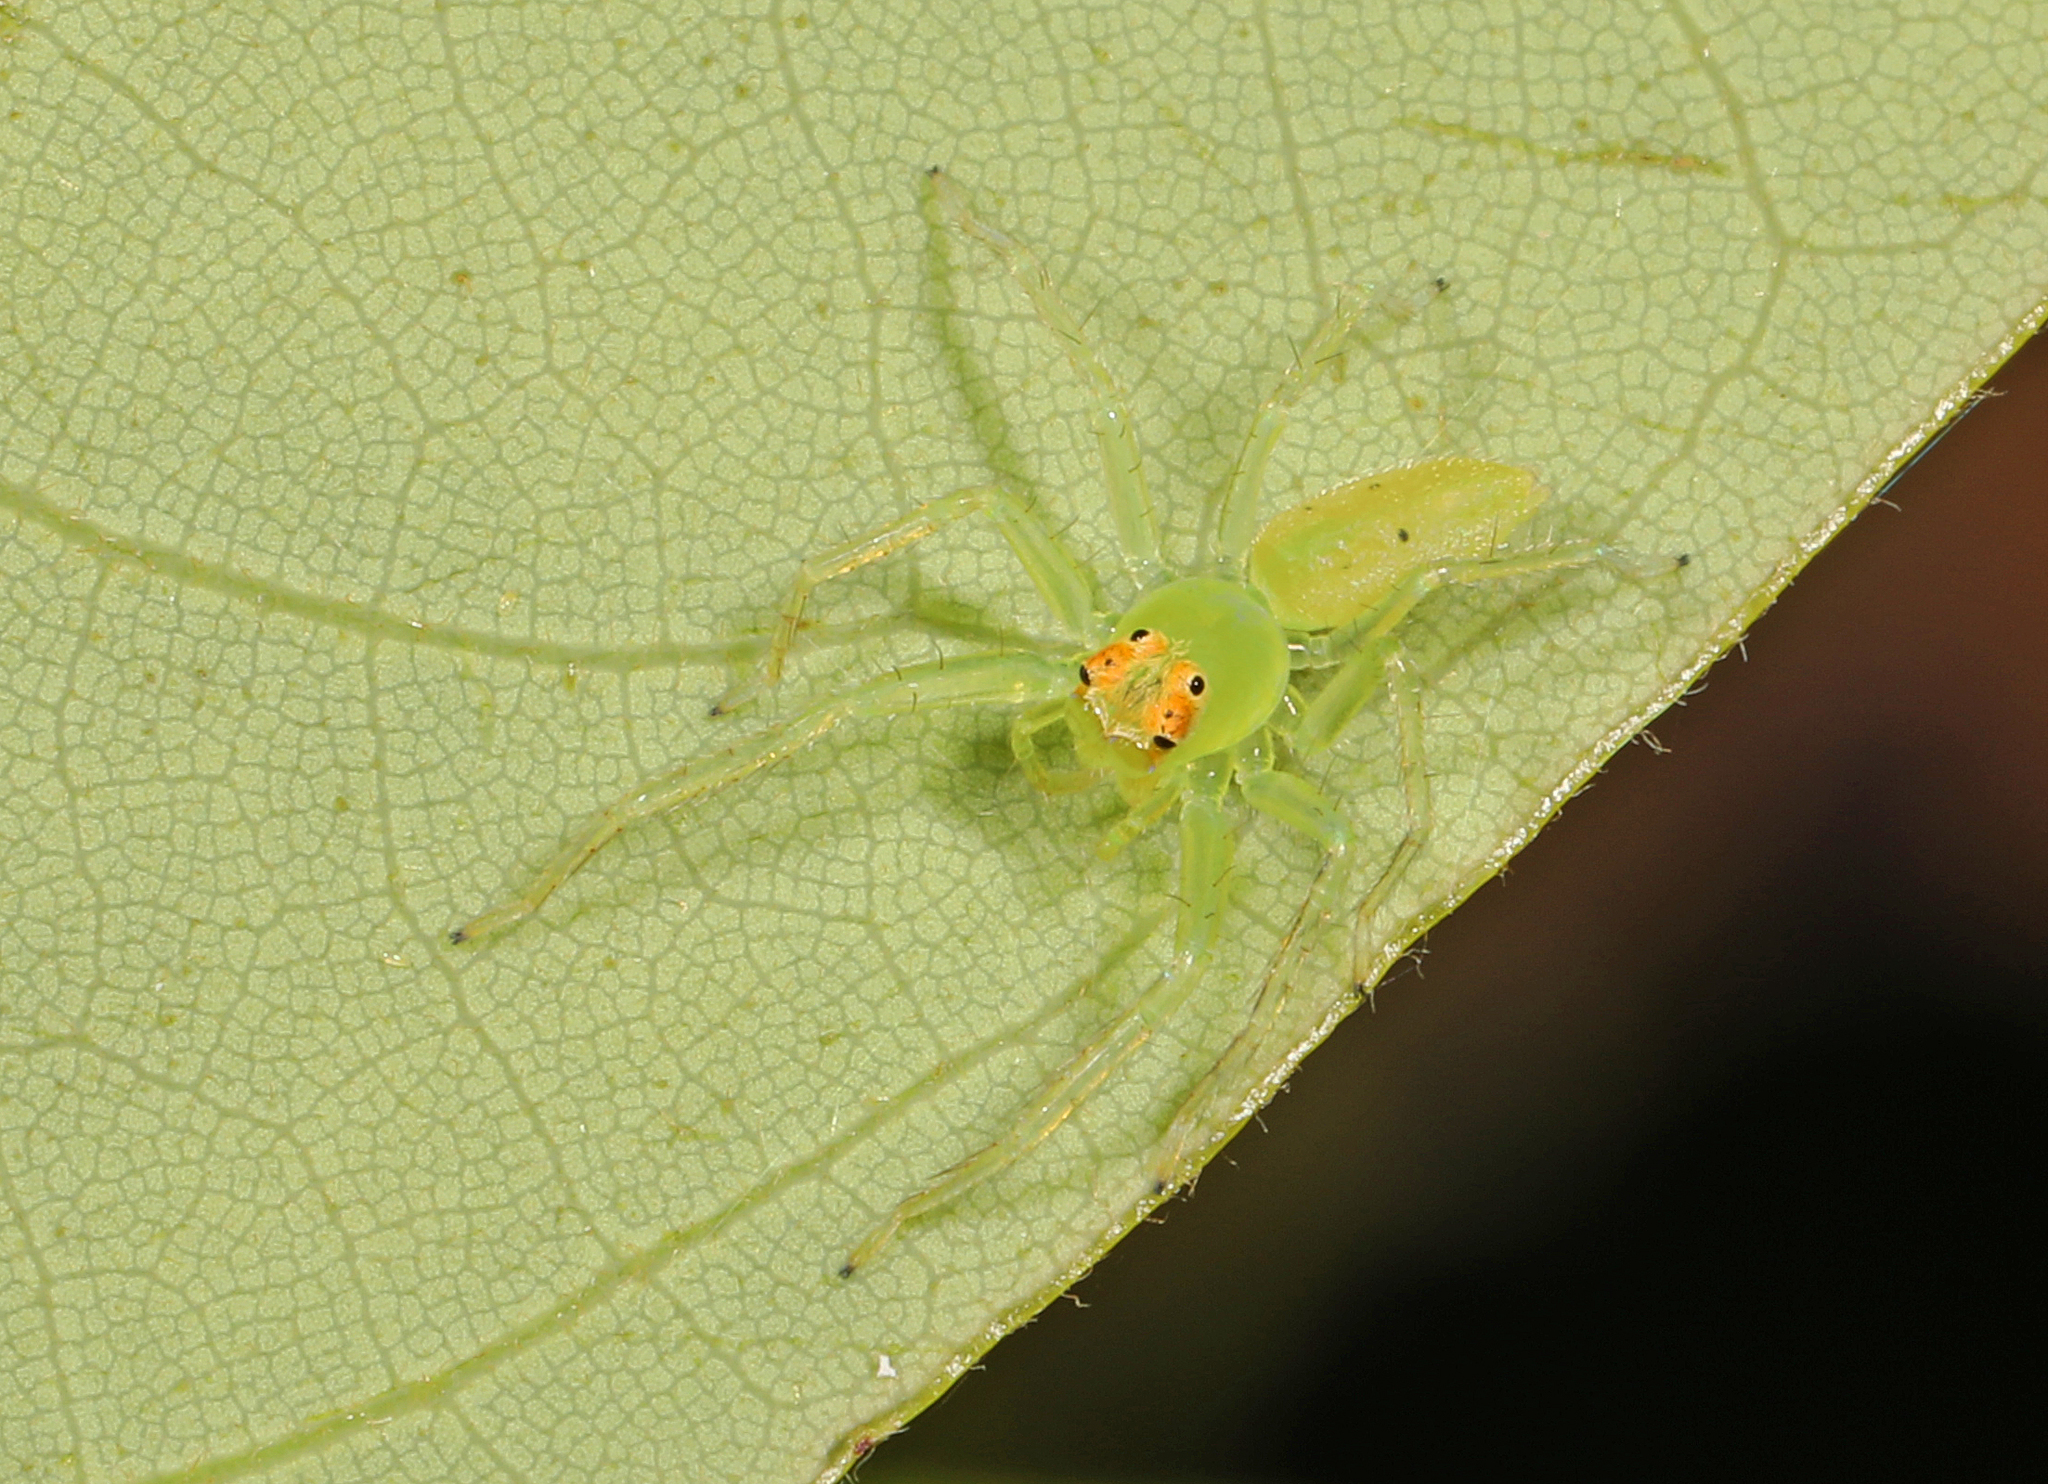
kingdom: Animalia
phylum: Arthropoda
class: Arachnida
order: Araneae
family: Salticidae
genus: Lyssomanes
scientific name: Lyssomanes viridis
